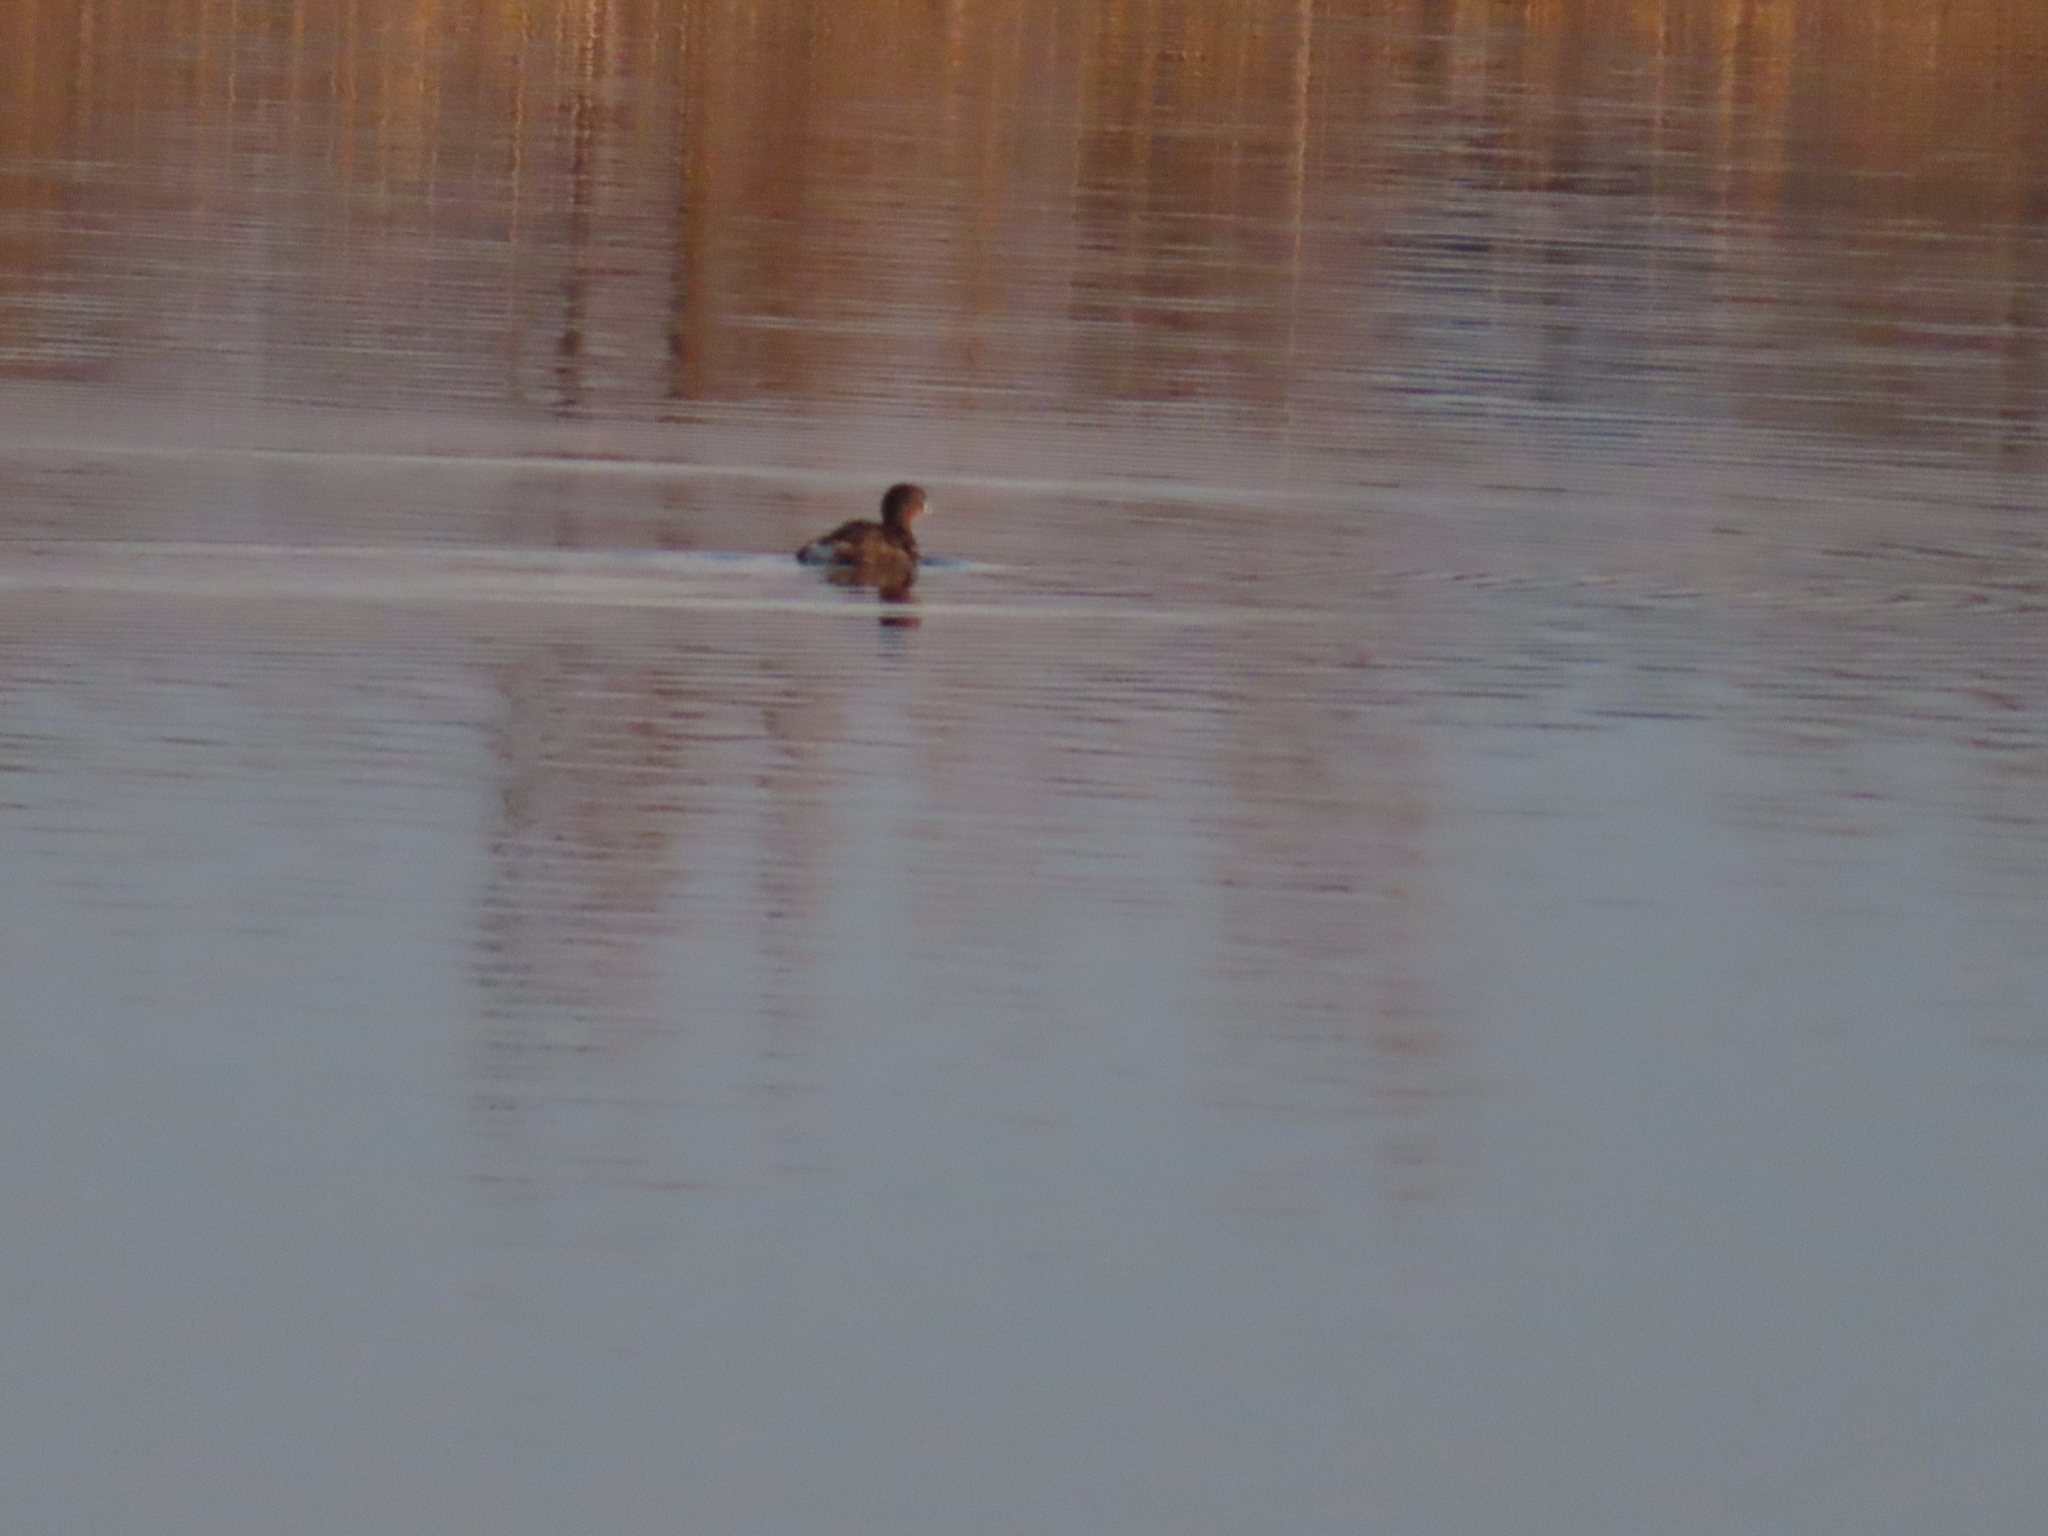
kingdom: Animalia
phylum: Chordata
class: Aves
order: Podicipediformes
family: Podicipedidae
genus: Podilymbus
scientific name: Podilymbus podiceps
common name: Pied-billed grebe
